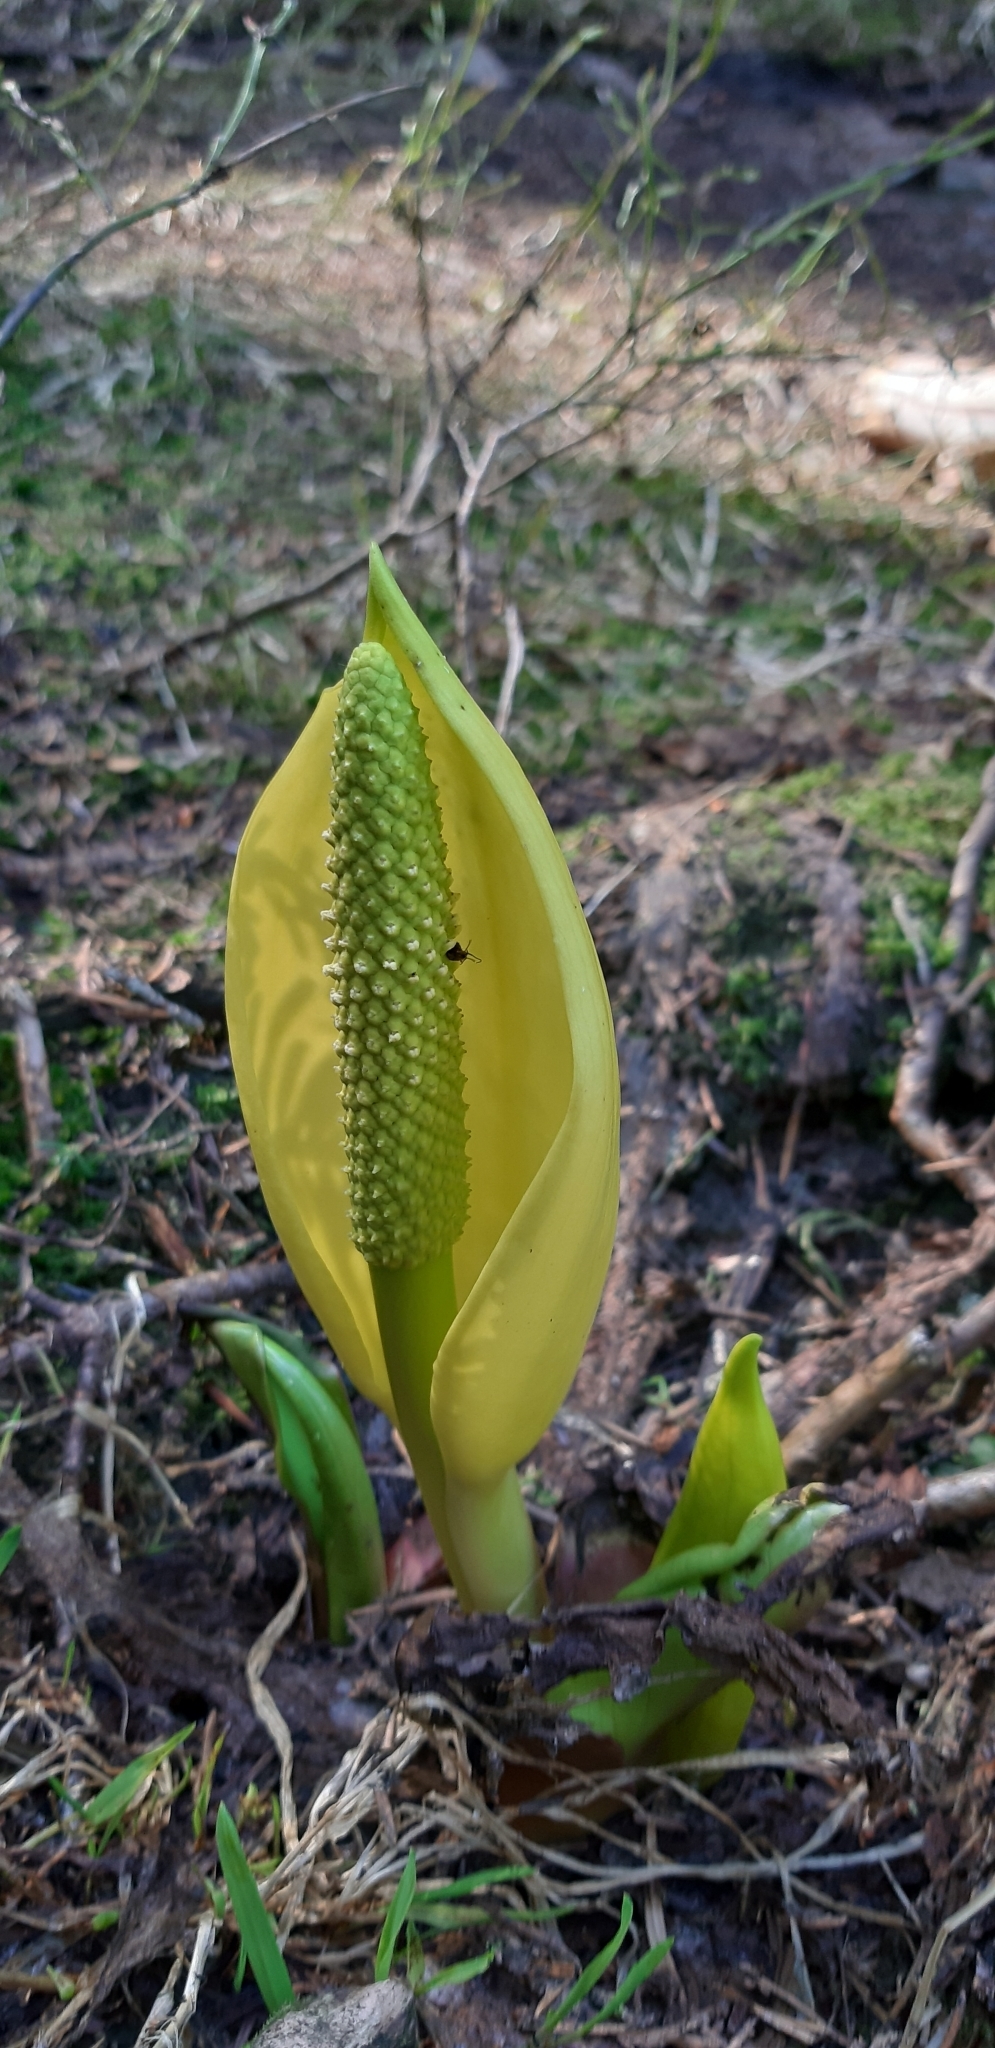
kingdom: Plantae
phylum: Tracheophyta
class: Liliopsida
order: Alismatales
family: Araceae
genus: Lysichiton
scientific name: Lysichiton americanus
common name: American skunk cabbage
